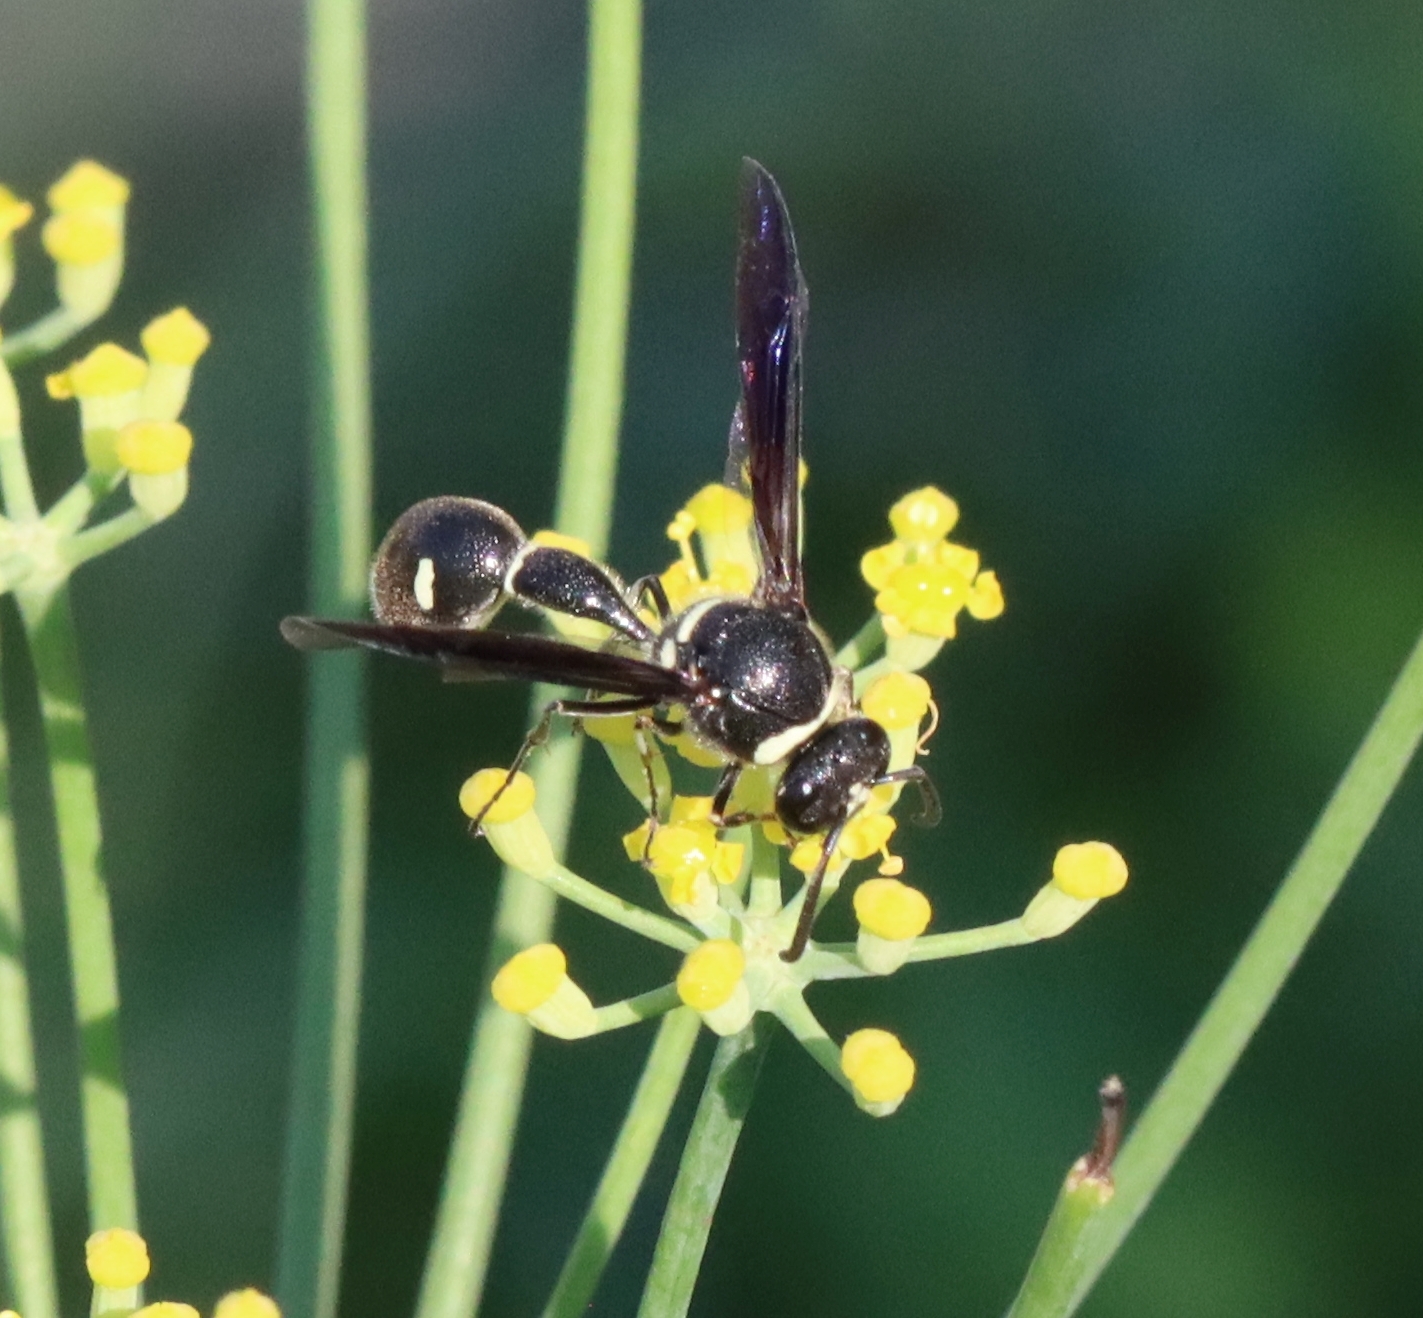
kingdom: Animalia
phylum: Arthropoda
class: Insecta
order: Hymenoptera
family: Vespidae
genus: Eumenes
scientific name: Eumenes fraternus
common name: Fraternal potter wasp
